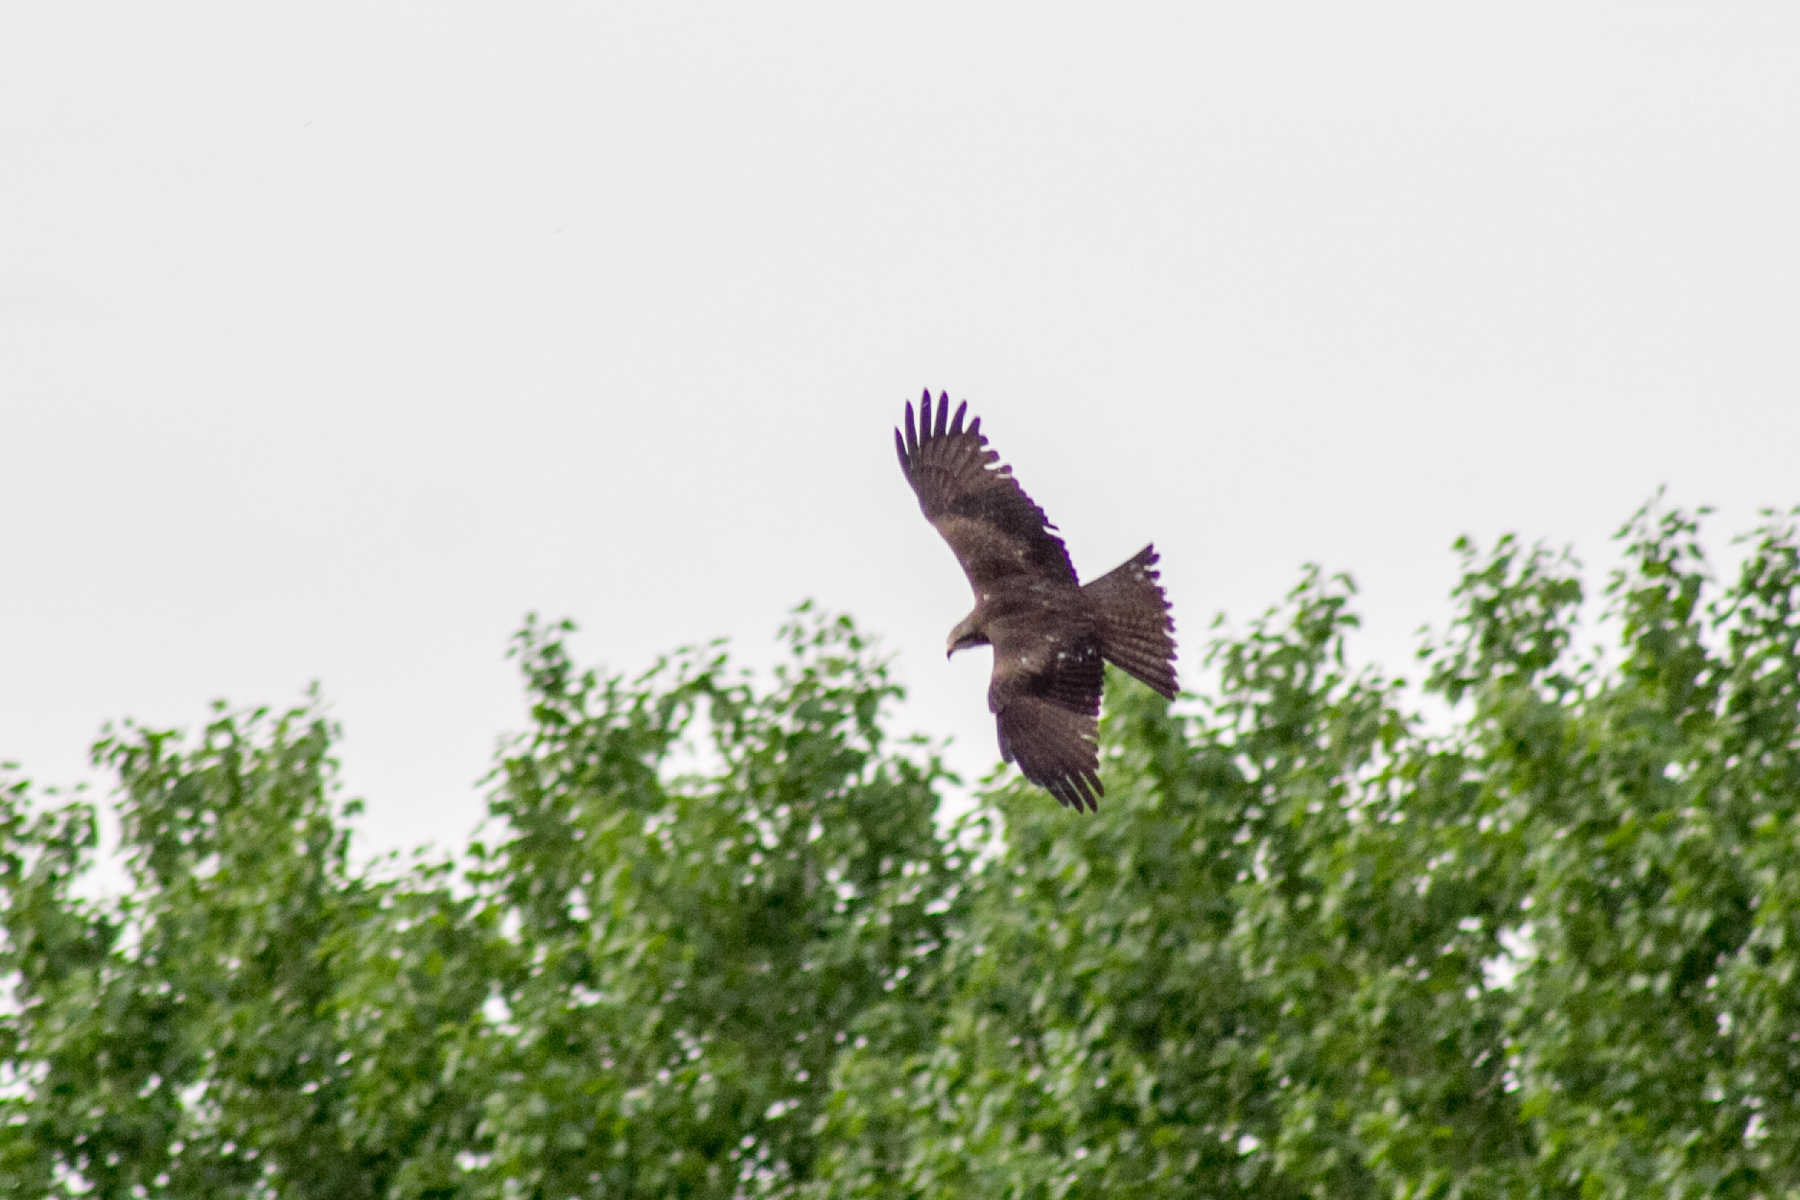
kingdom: Animalia
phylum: Chordata
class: Aves
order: Accipitriformes
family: Accipitridae
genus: Circus
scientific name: Circus aeruginosus
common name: Western marsh harrier
